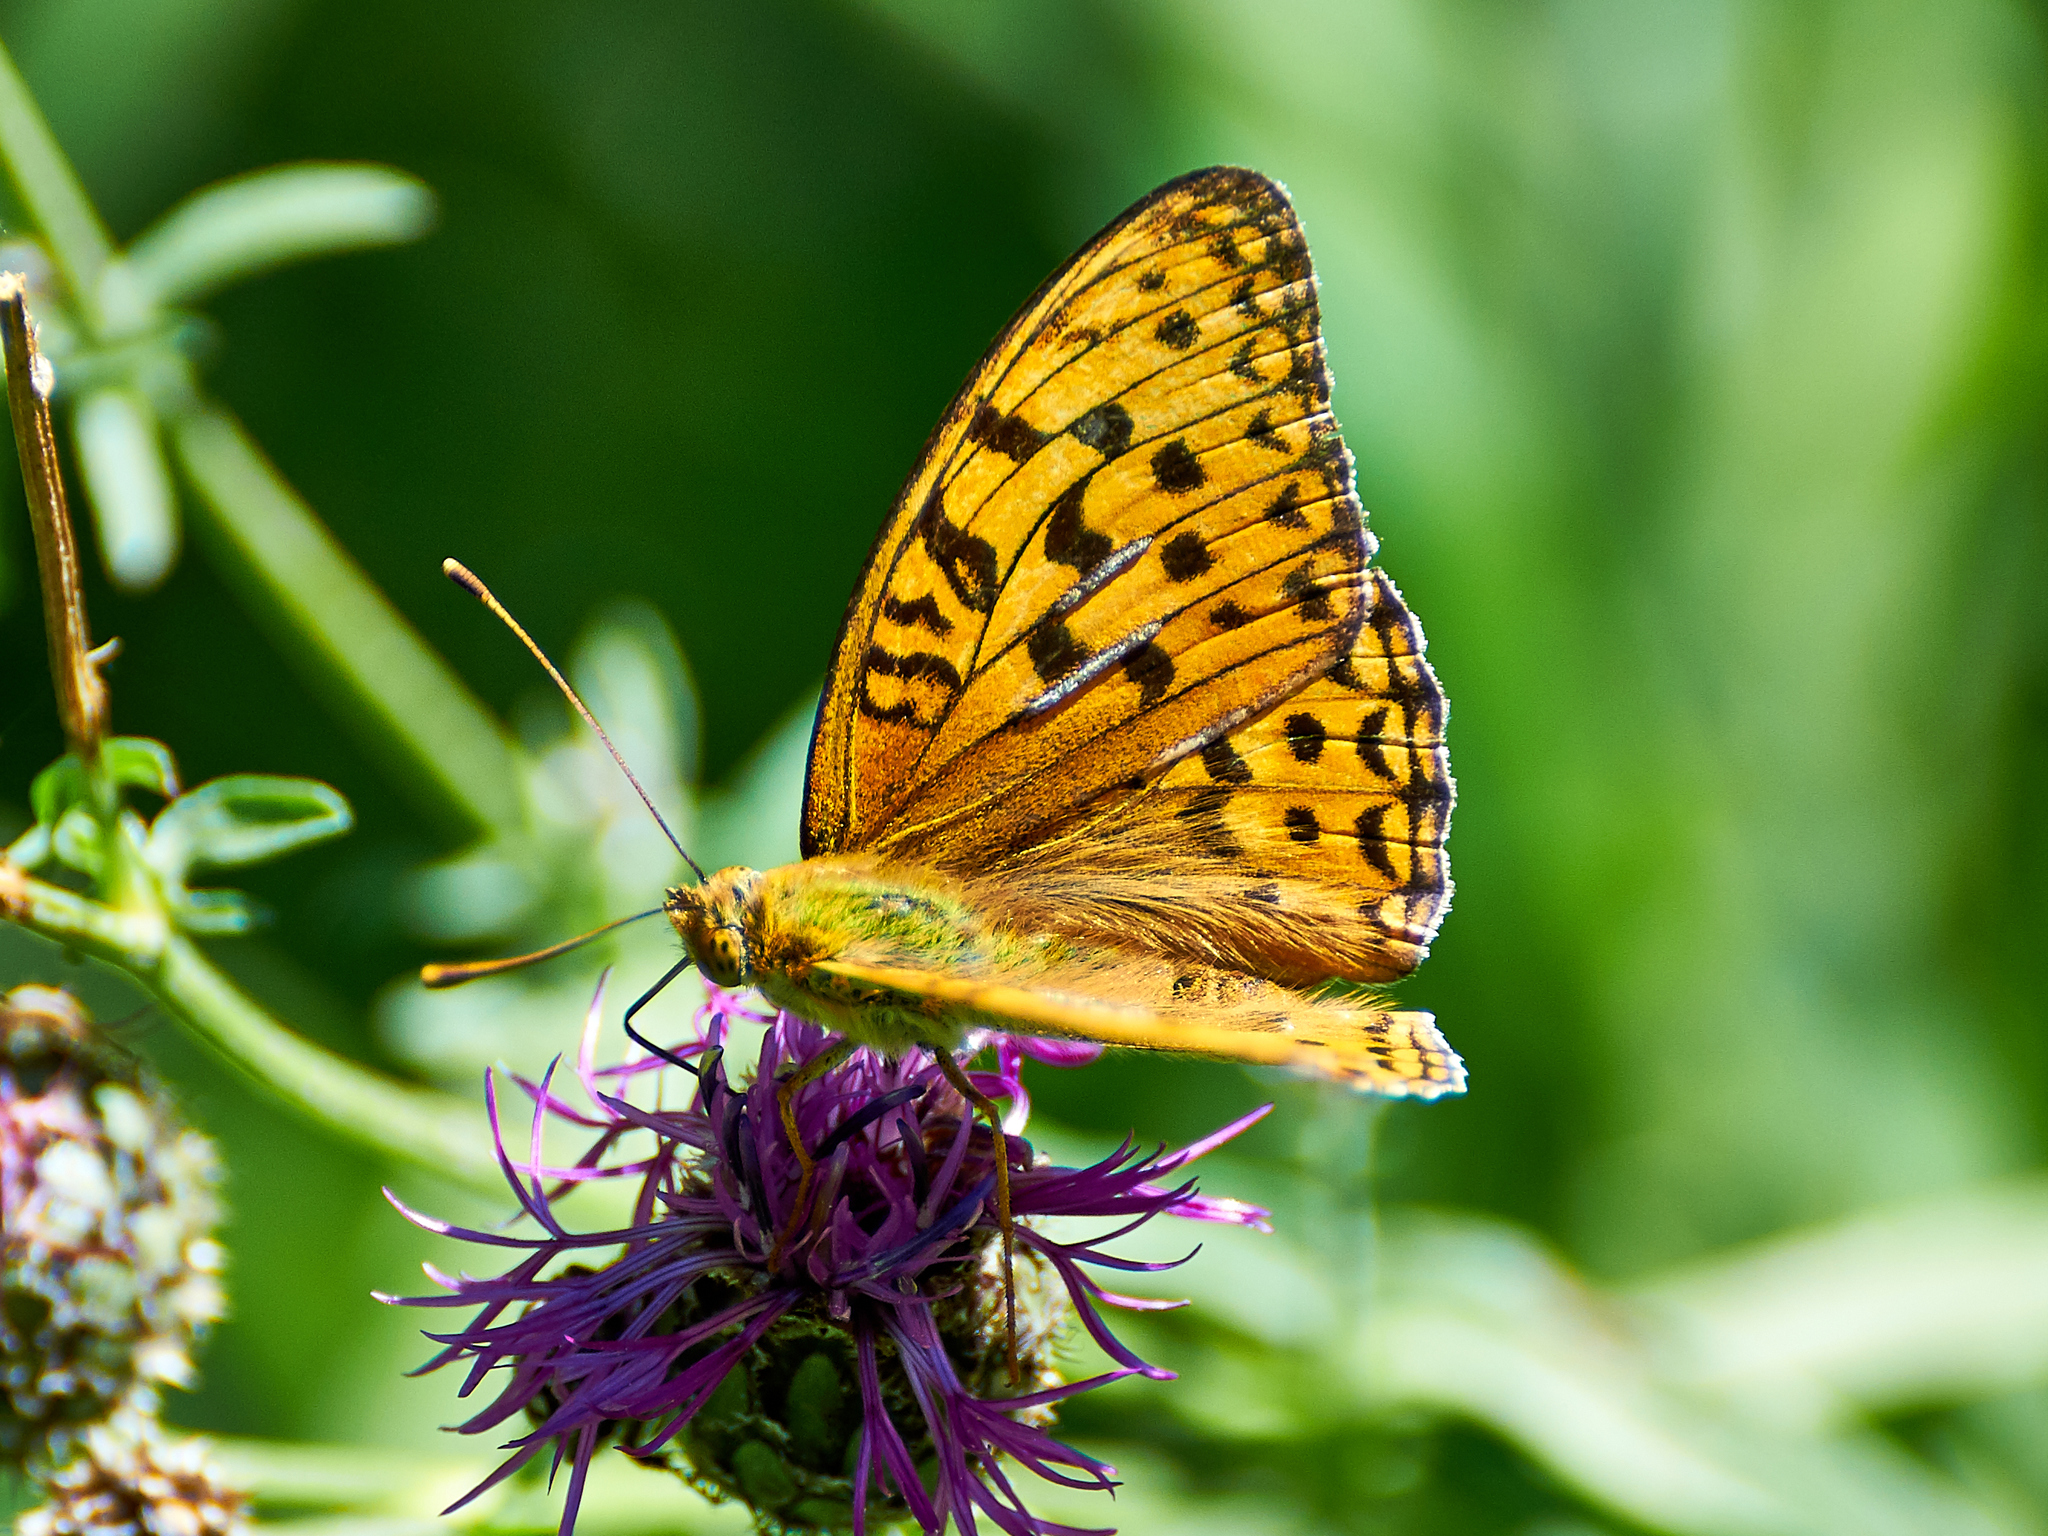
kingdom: Animalia
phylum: Arthropoda
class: Insecta
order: Lepidoptera
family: Nymphalidae
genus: Fabriciana
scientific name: Fabriciana adippe
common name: High brown fritillary
